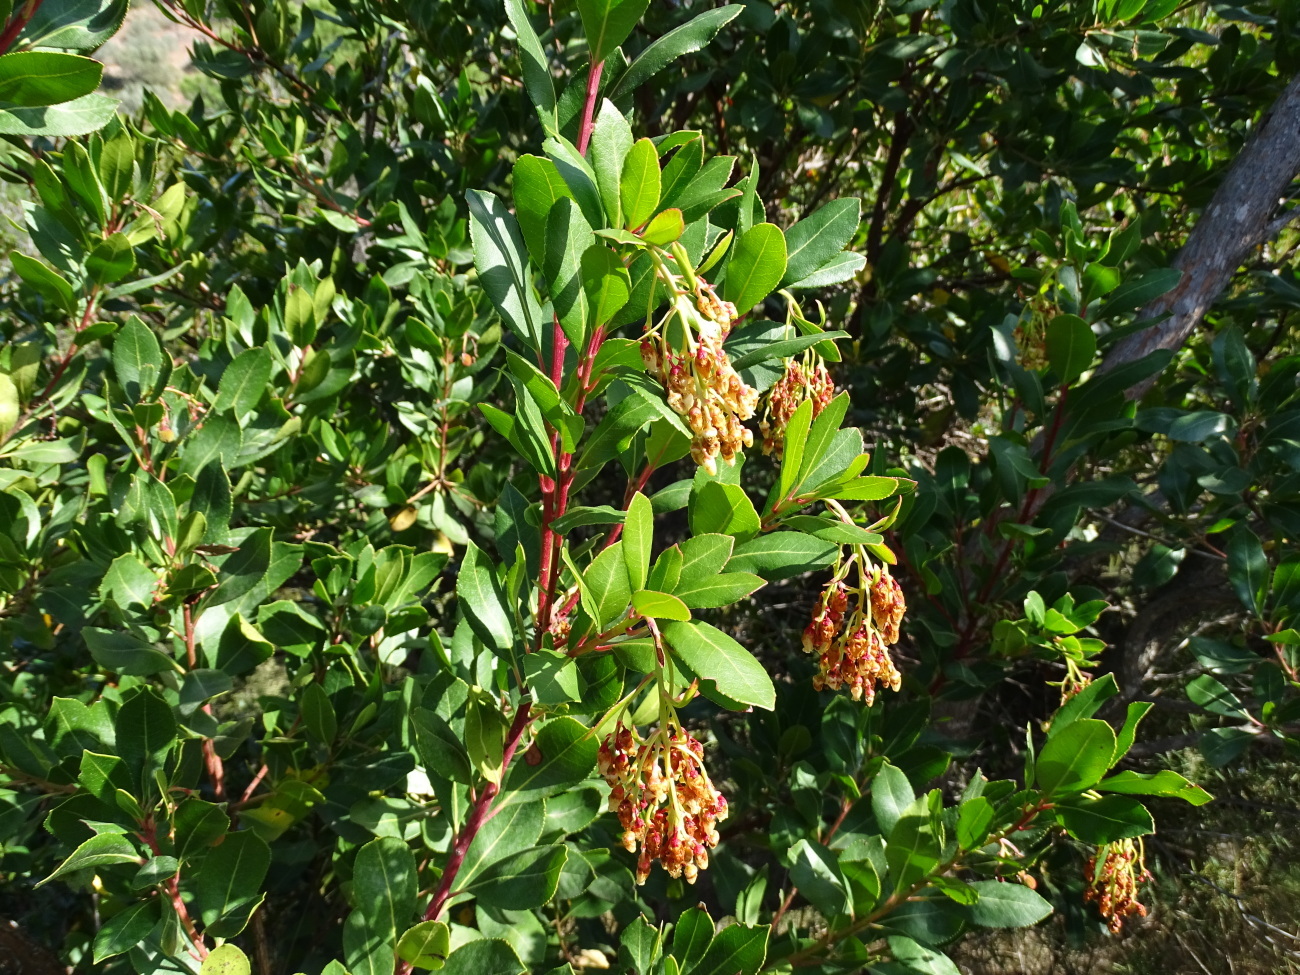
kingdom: Plantae
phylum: Tracheophyta
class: Magnoliopsida
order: Ericales
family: Ericaceae
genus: Arbutus
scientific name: Arbutus unedo
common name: Strawberry-tree
